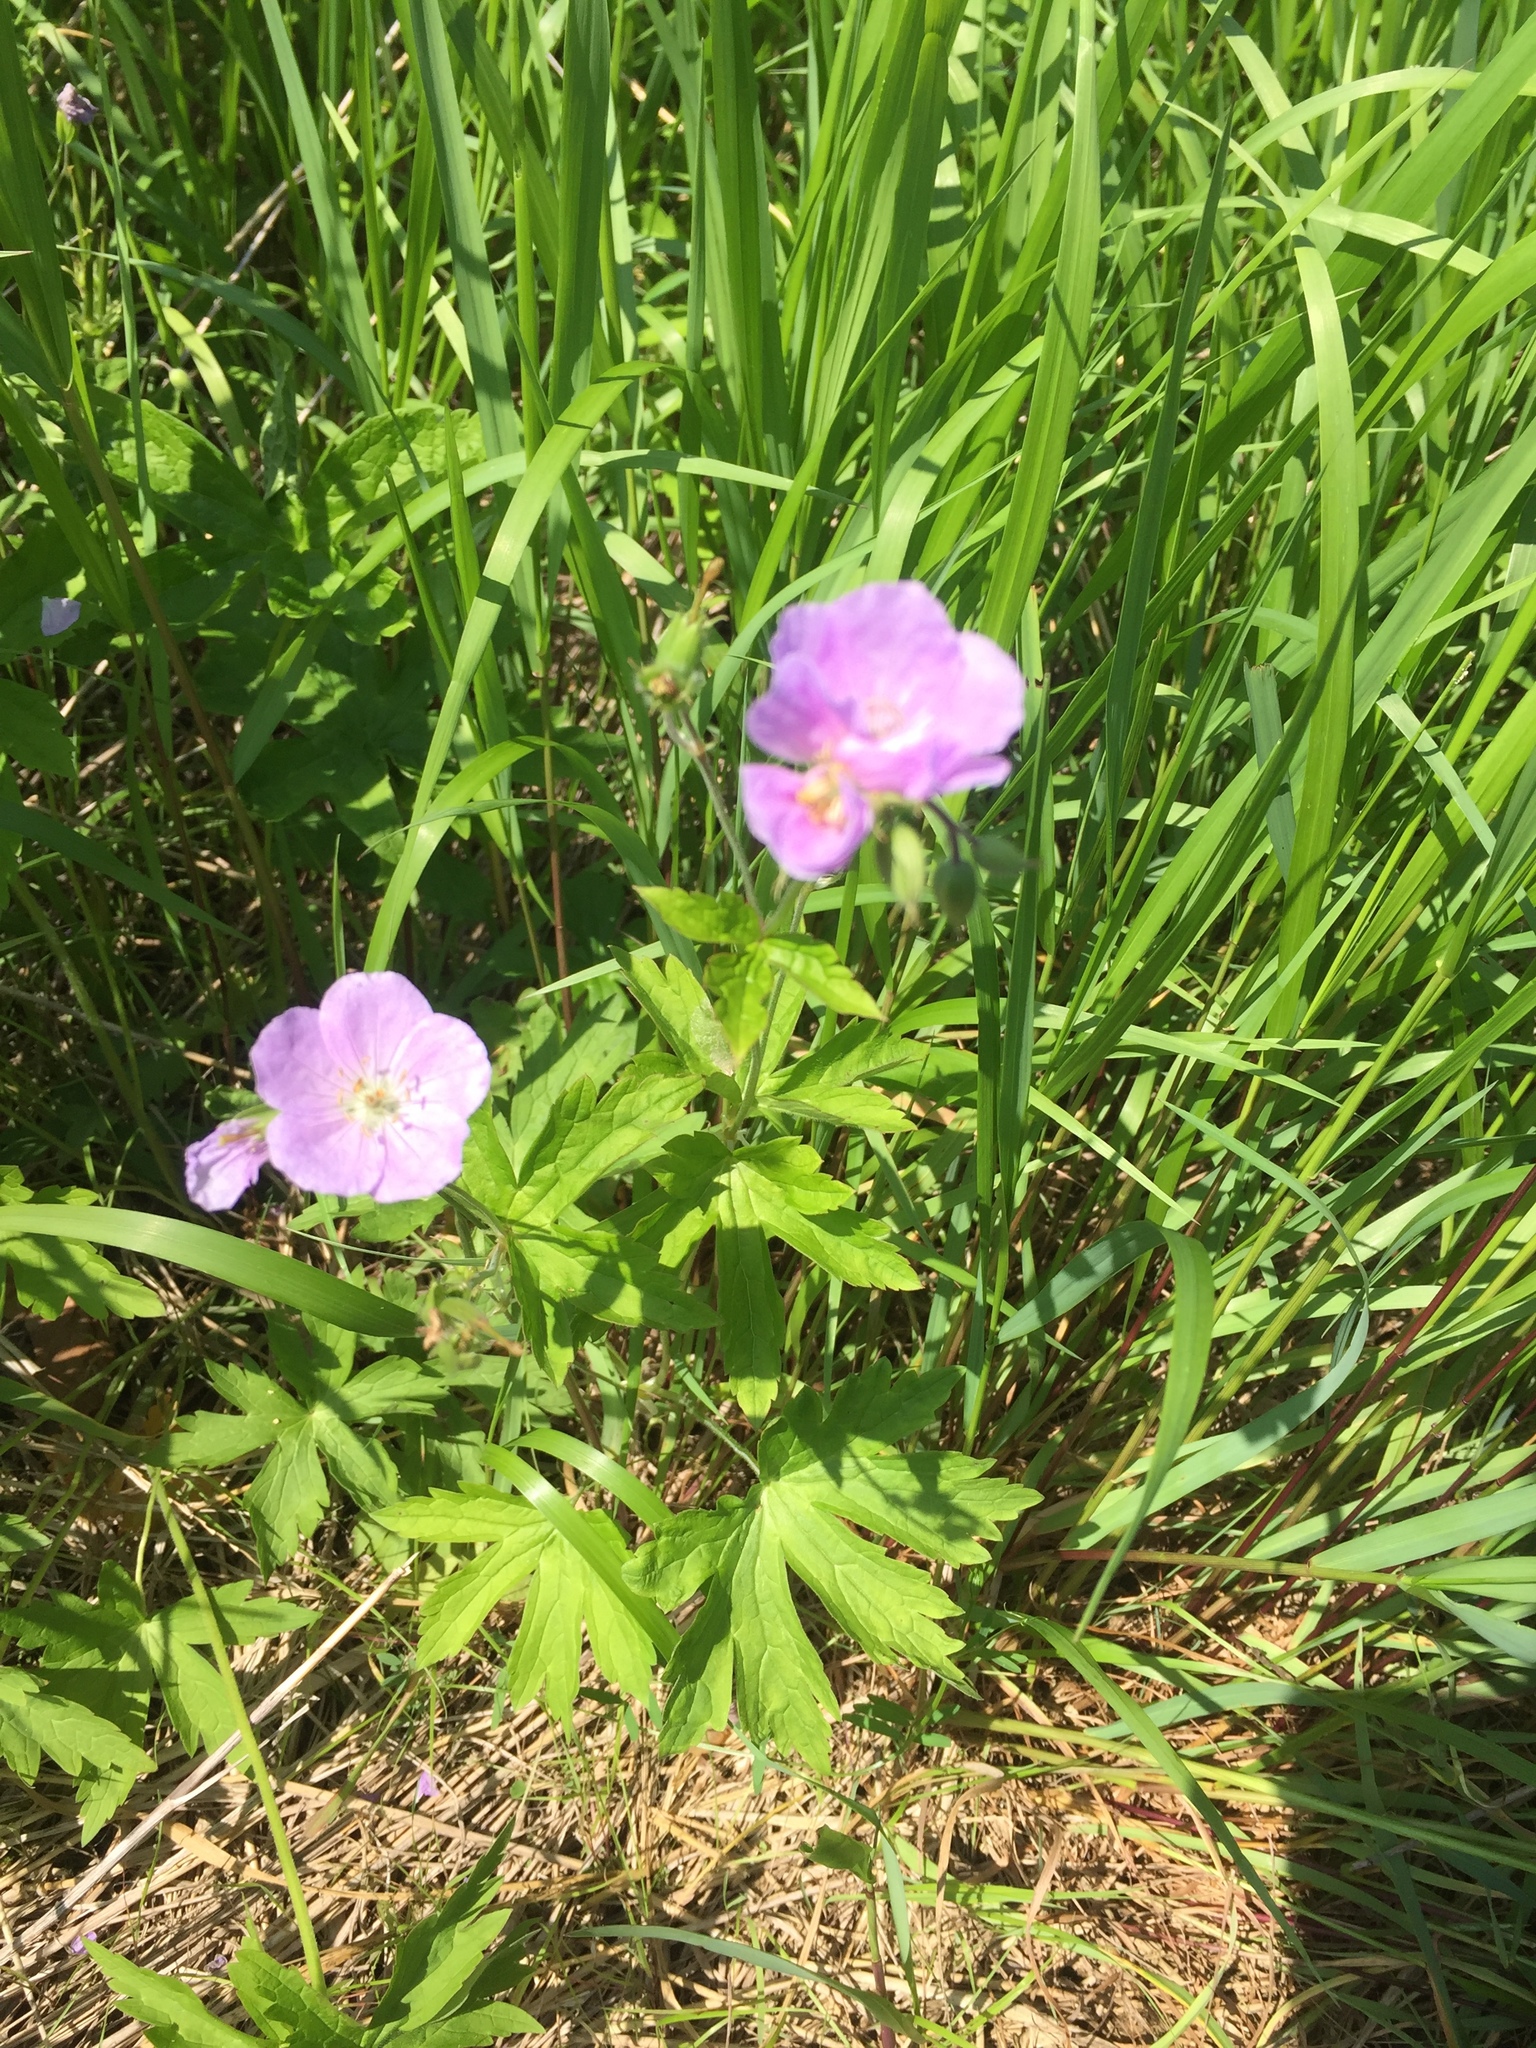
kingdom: Plantae
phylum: Tracheophyta
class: Magnoliopsida
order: Geraniales
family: Geraniaceae
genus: Geranium
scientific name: Geranium maculatum
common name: Spotted geranium
